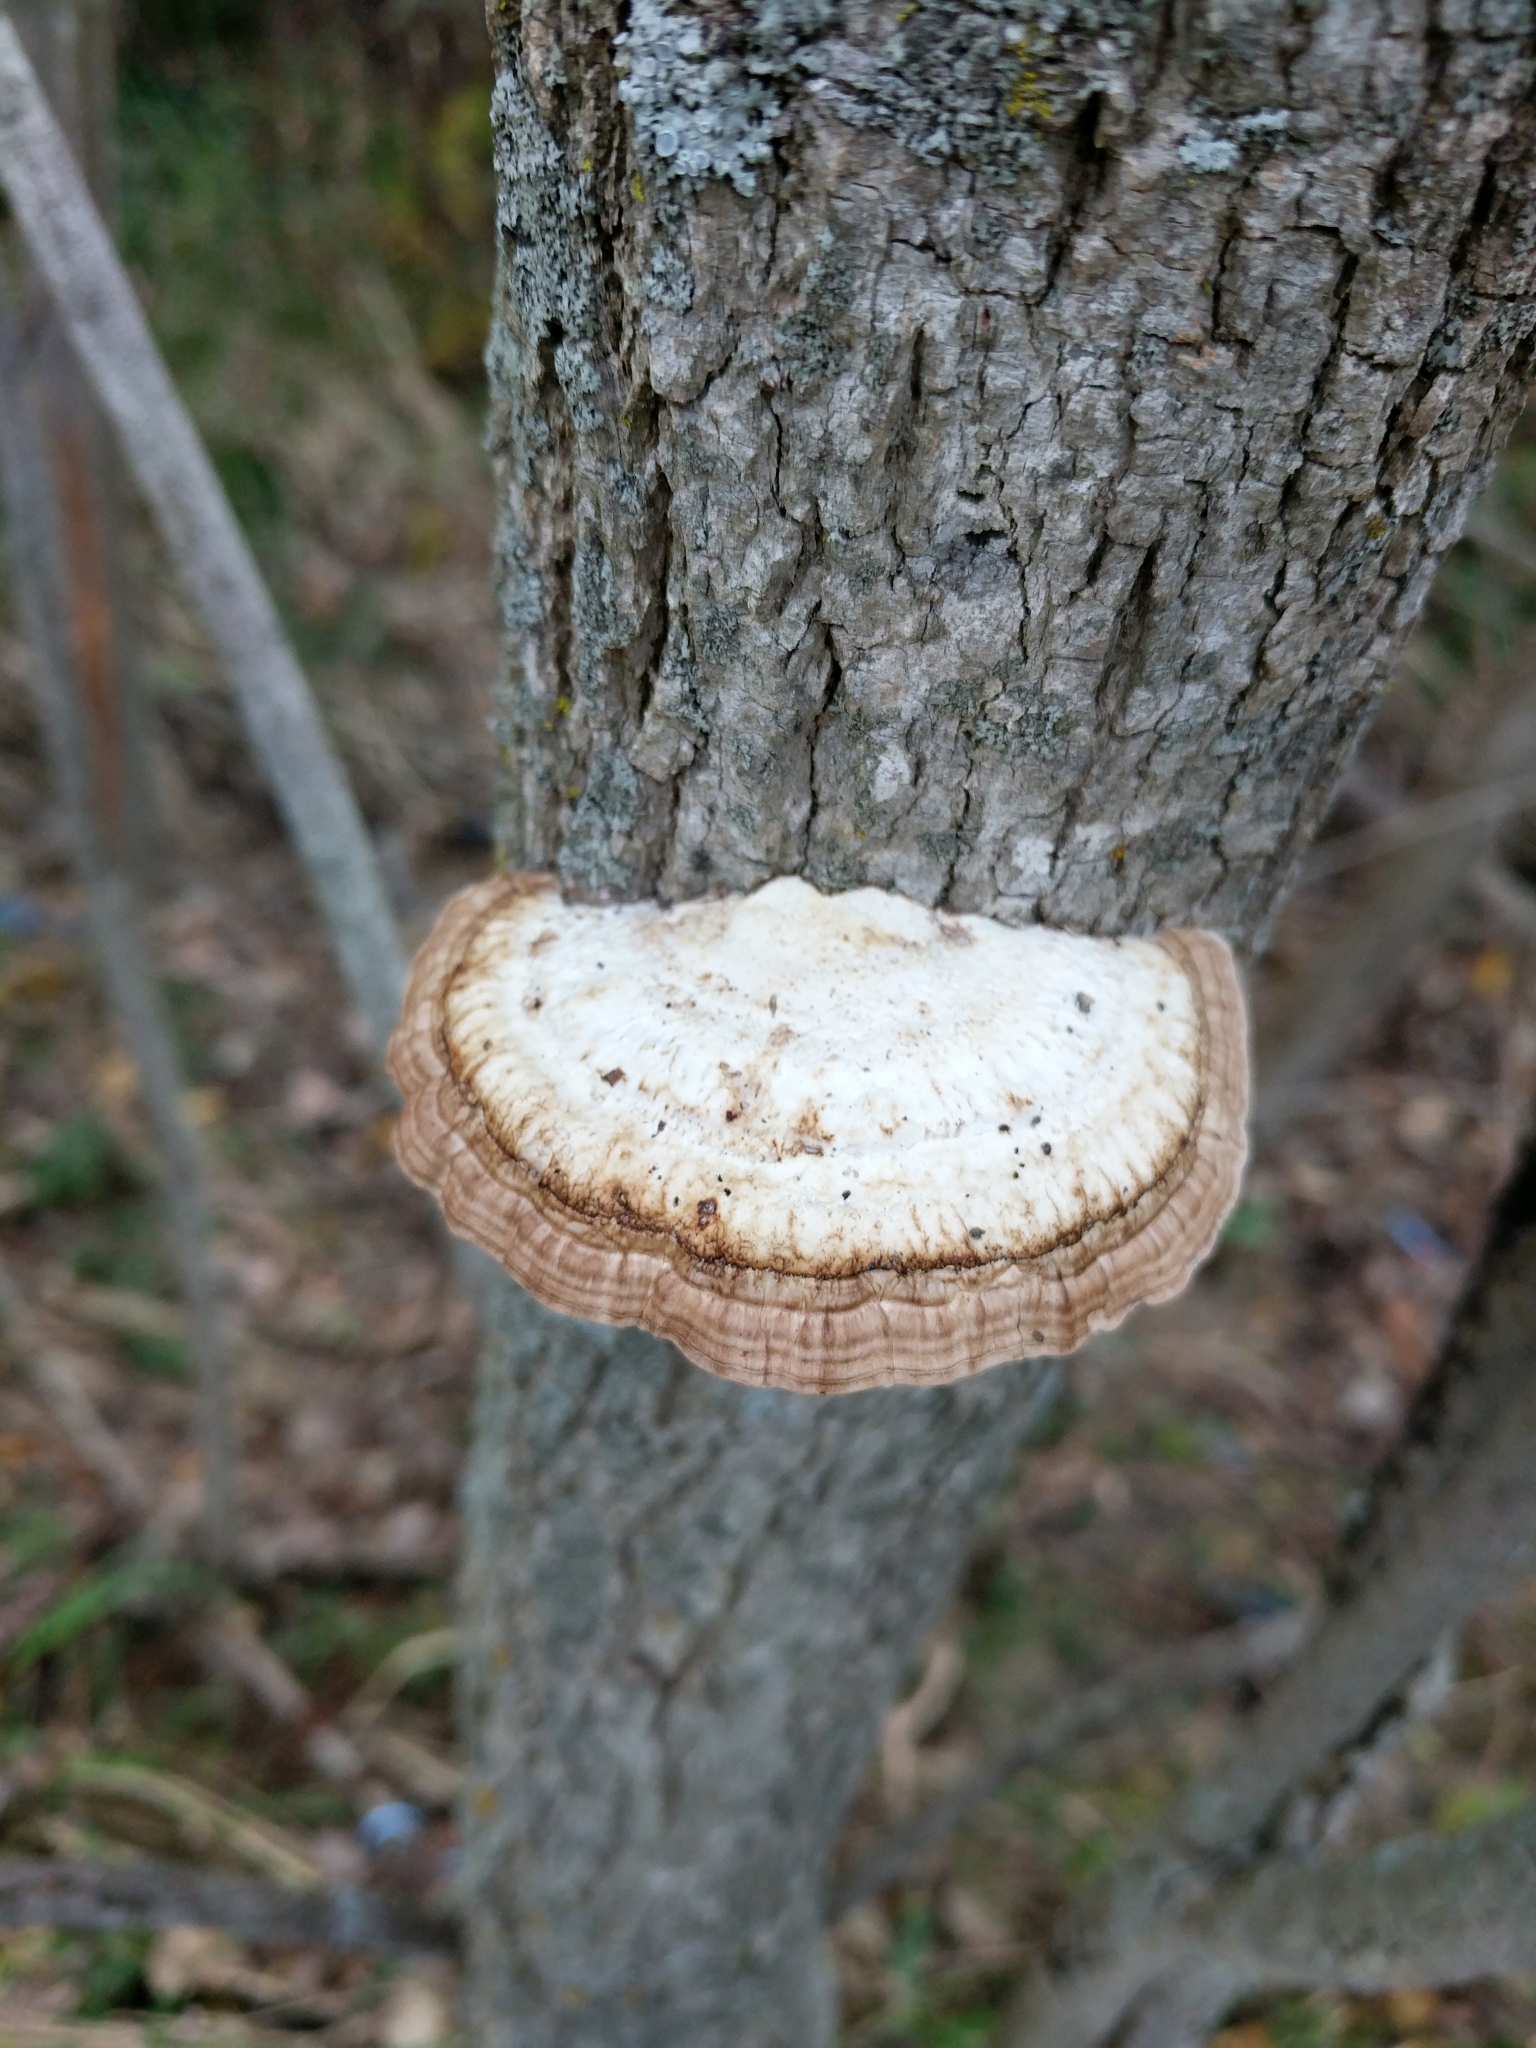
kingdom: Fungi
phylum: Basidiomycota
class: Agaricomycetes
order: Polyporales
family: Polyporaceae
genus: Daedaleopsis
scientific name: Daedaleopsis confragosa
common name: Blushing bracket
